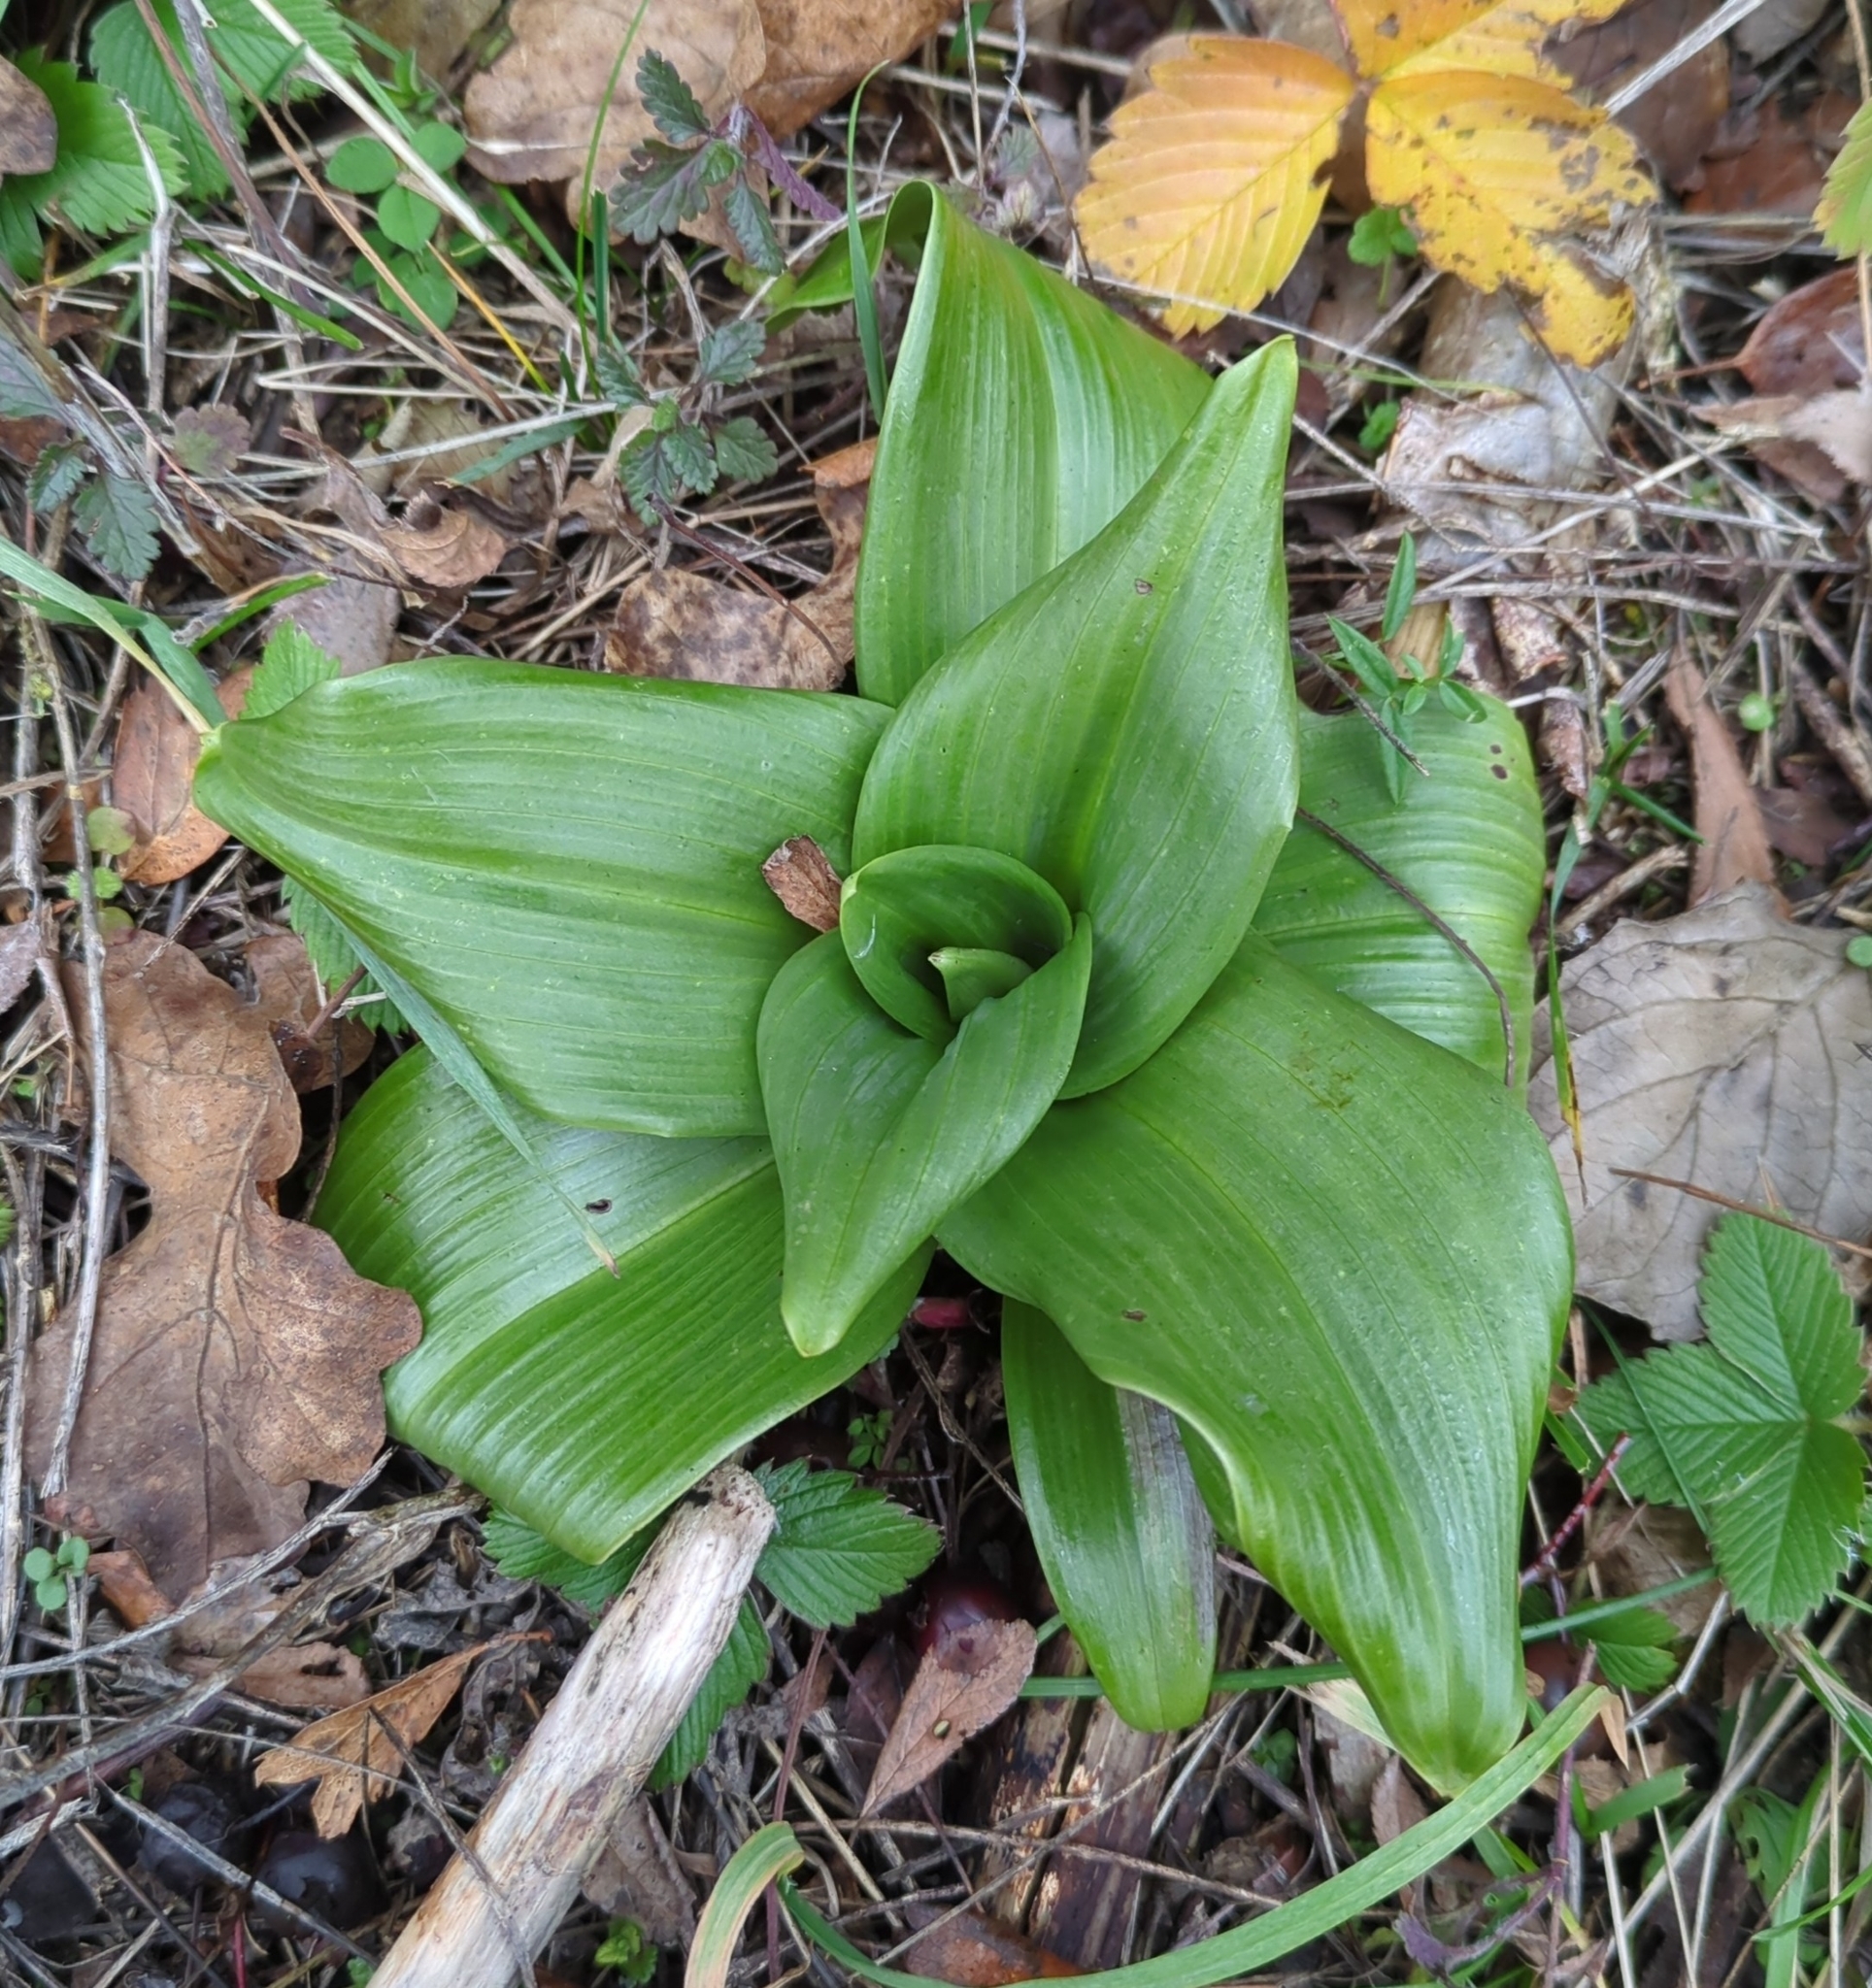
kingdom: Plantae
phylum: Tracheophyta
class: Liliopsida
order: Asparagales
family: Orchidaceae
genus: Himantoglossum
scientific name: Himantoglossum hircinum
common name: Lizard orchid
